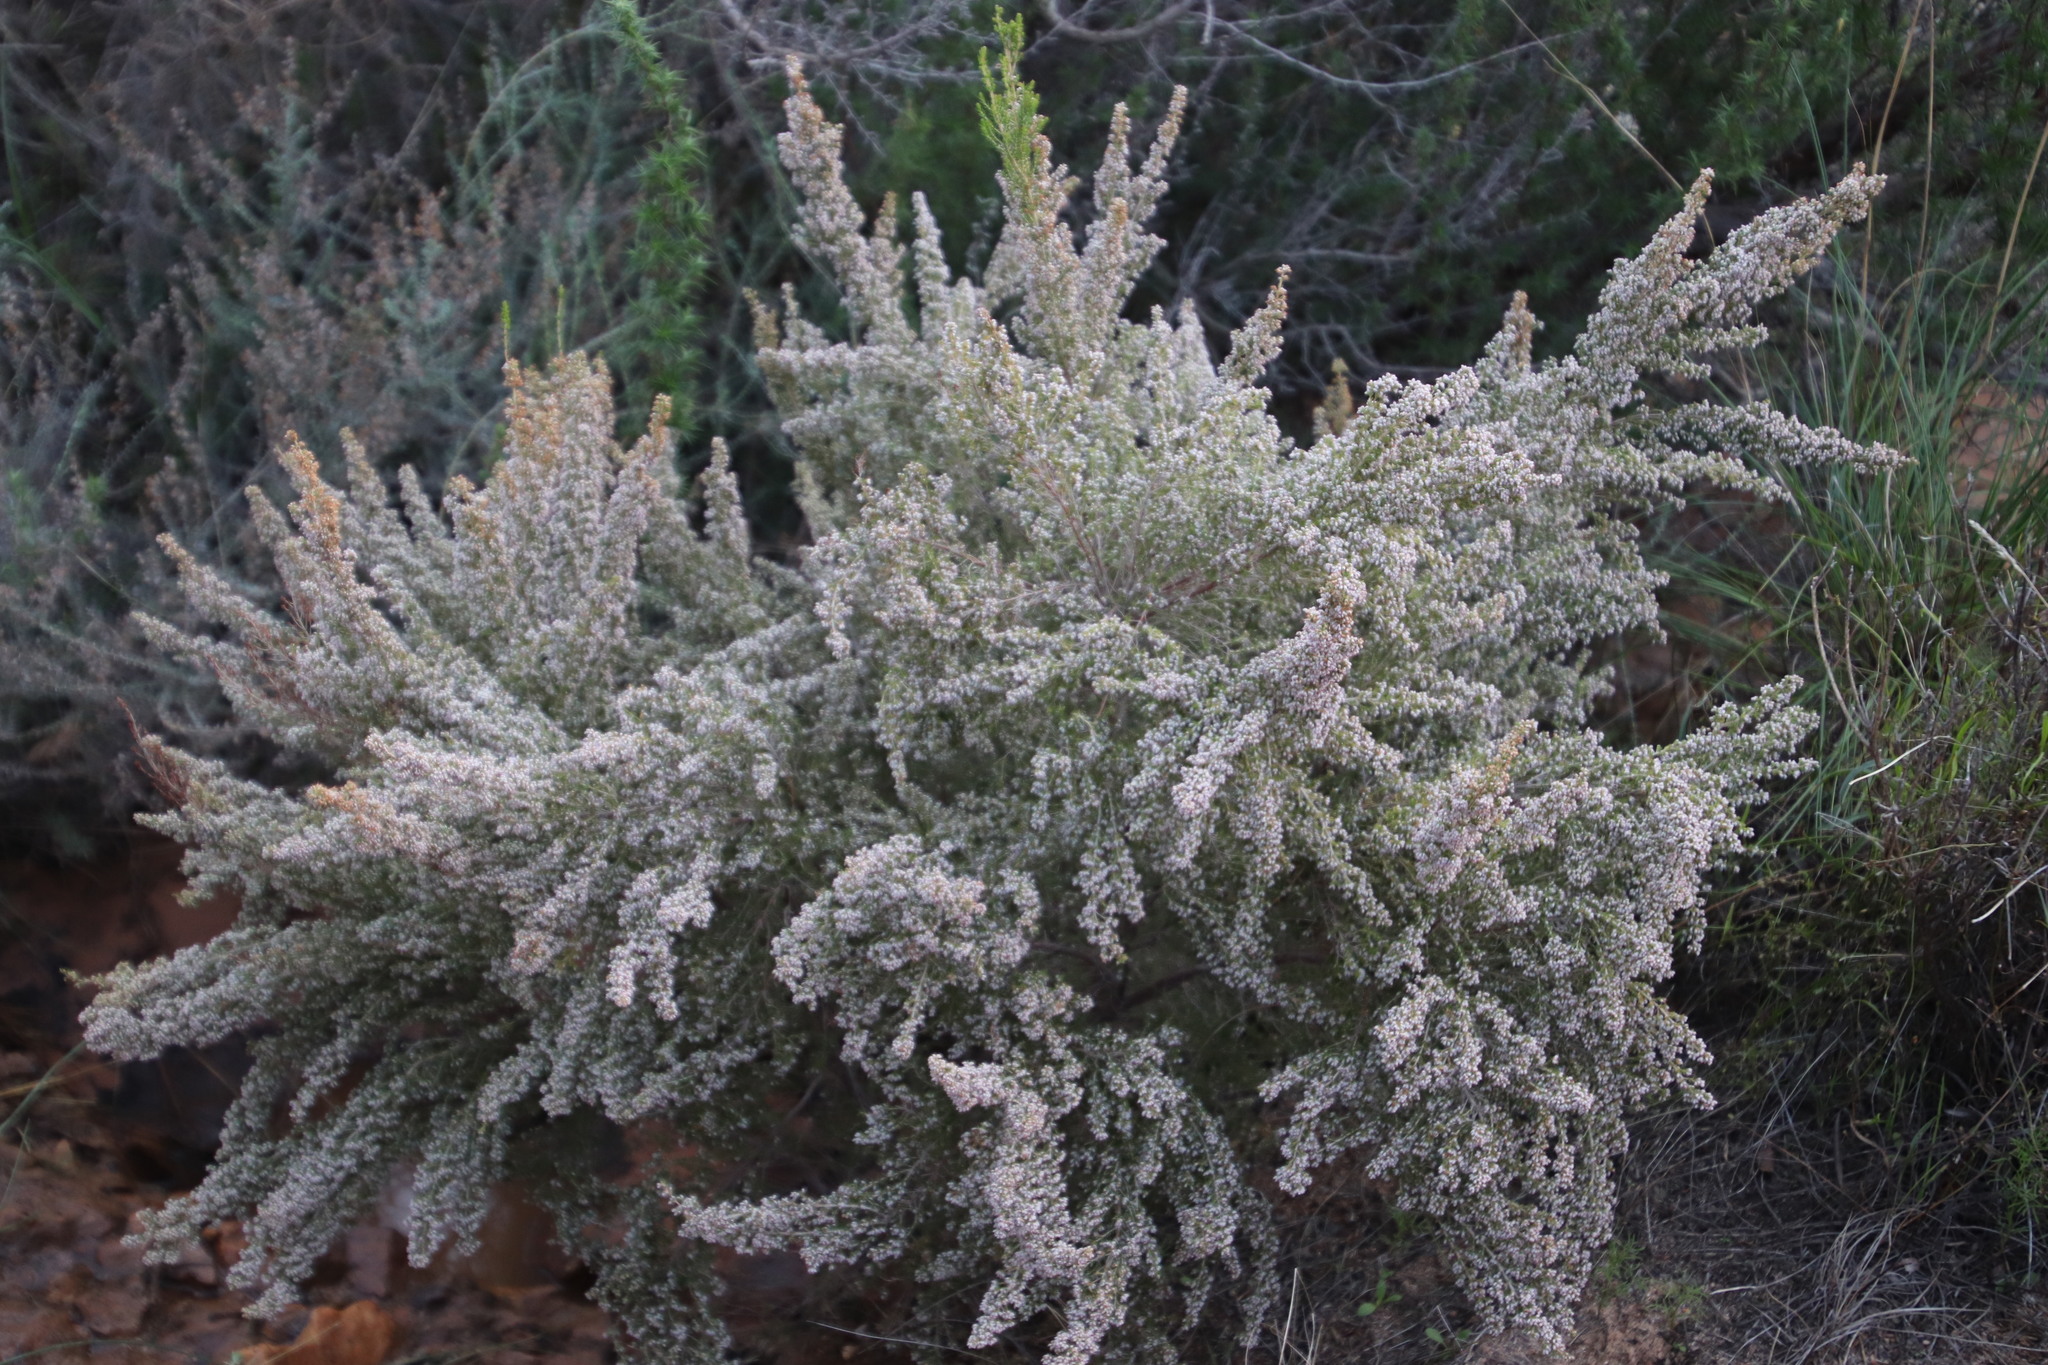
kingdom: Plantae
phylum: Tracheophyta
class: Magnoliopsida
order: Ericales
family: Ericaceae
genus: Erica
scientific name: Erica hispidula
